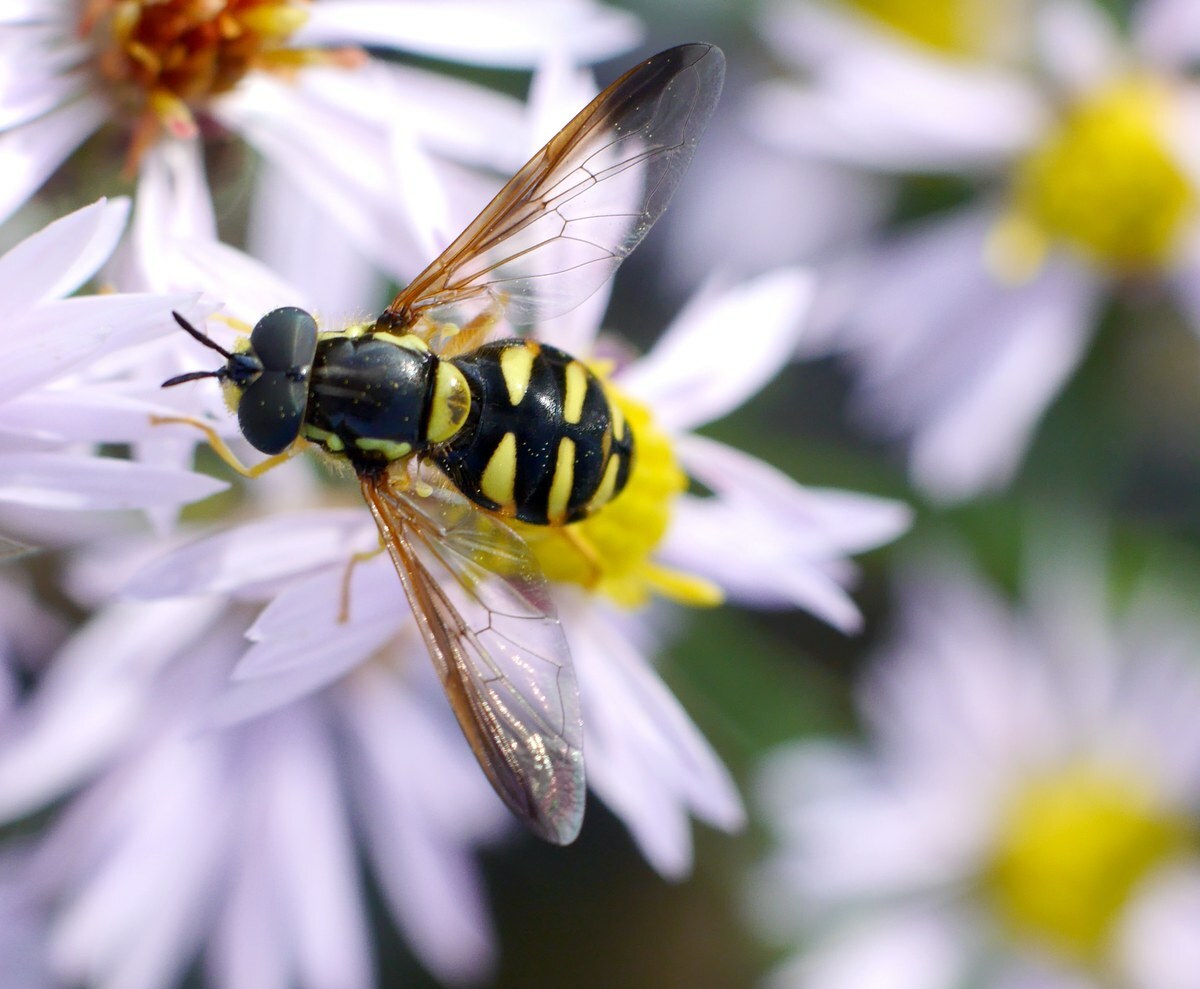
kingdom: Animalia
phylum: Arthropoda
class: Insecta
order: Diptera
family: Syrphidae
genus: Chrysotoxum
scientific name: Chrysotoxum intermedium
